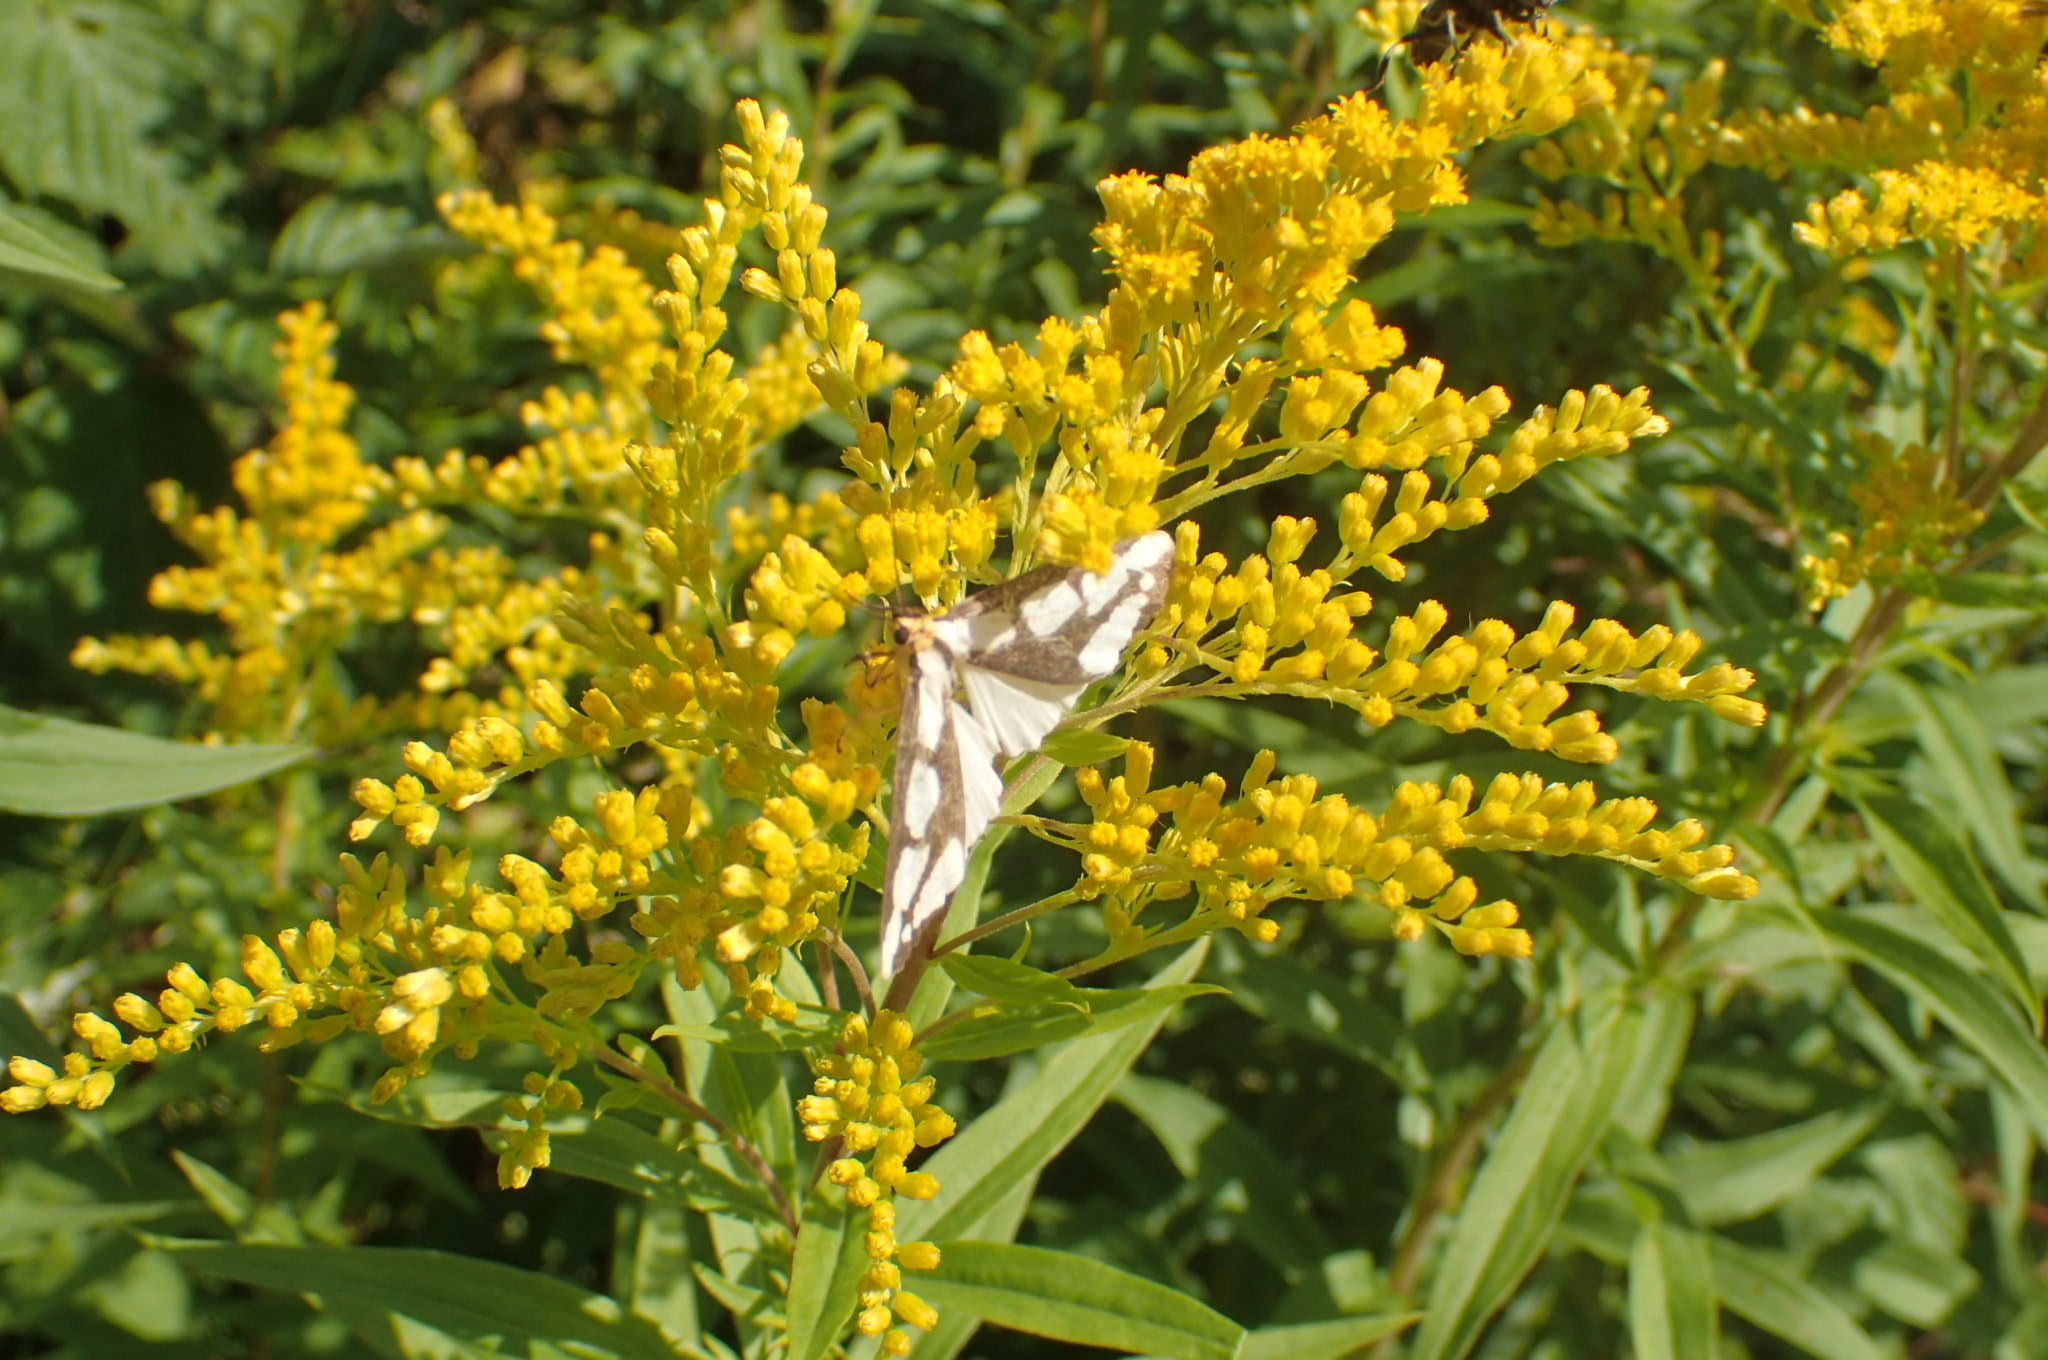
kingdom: Animalia
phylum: Arthropoda
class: Insecta
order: Lepidoptera
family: Erebidae
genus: Haploa
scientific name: Haploa lecontei
